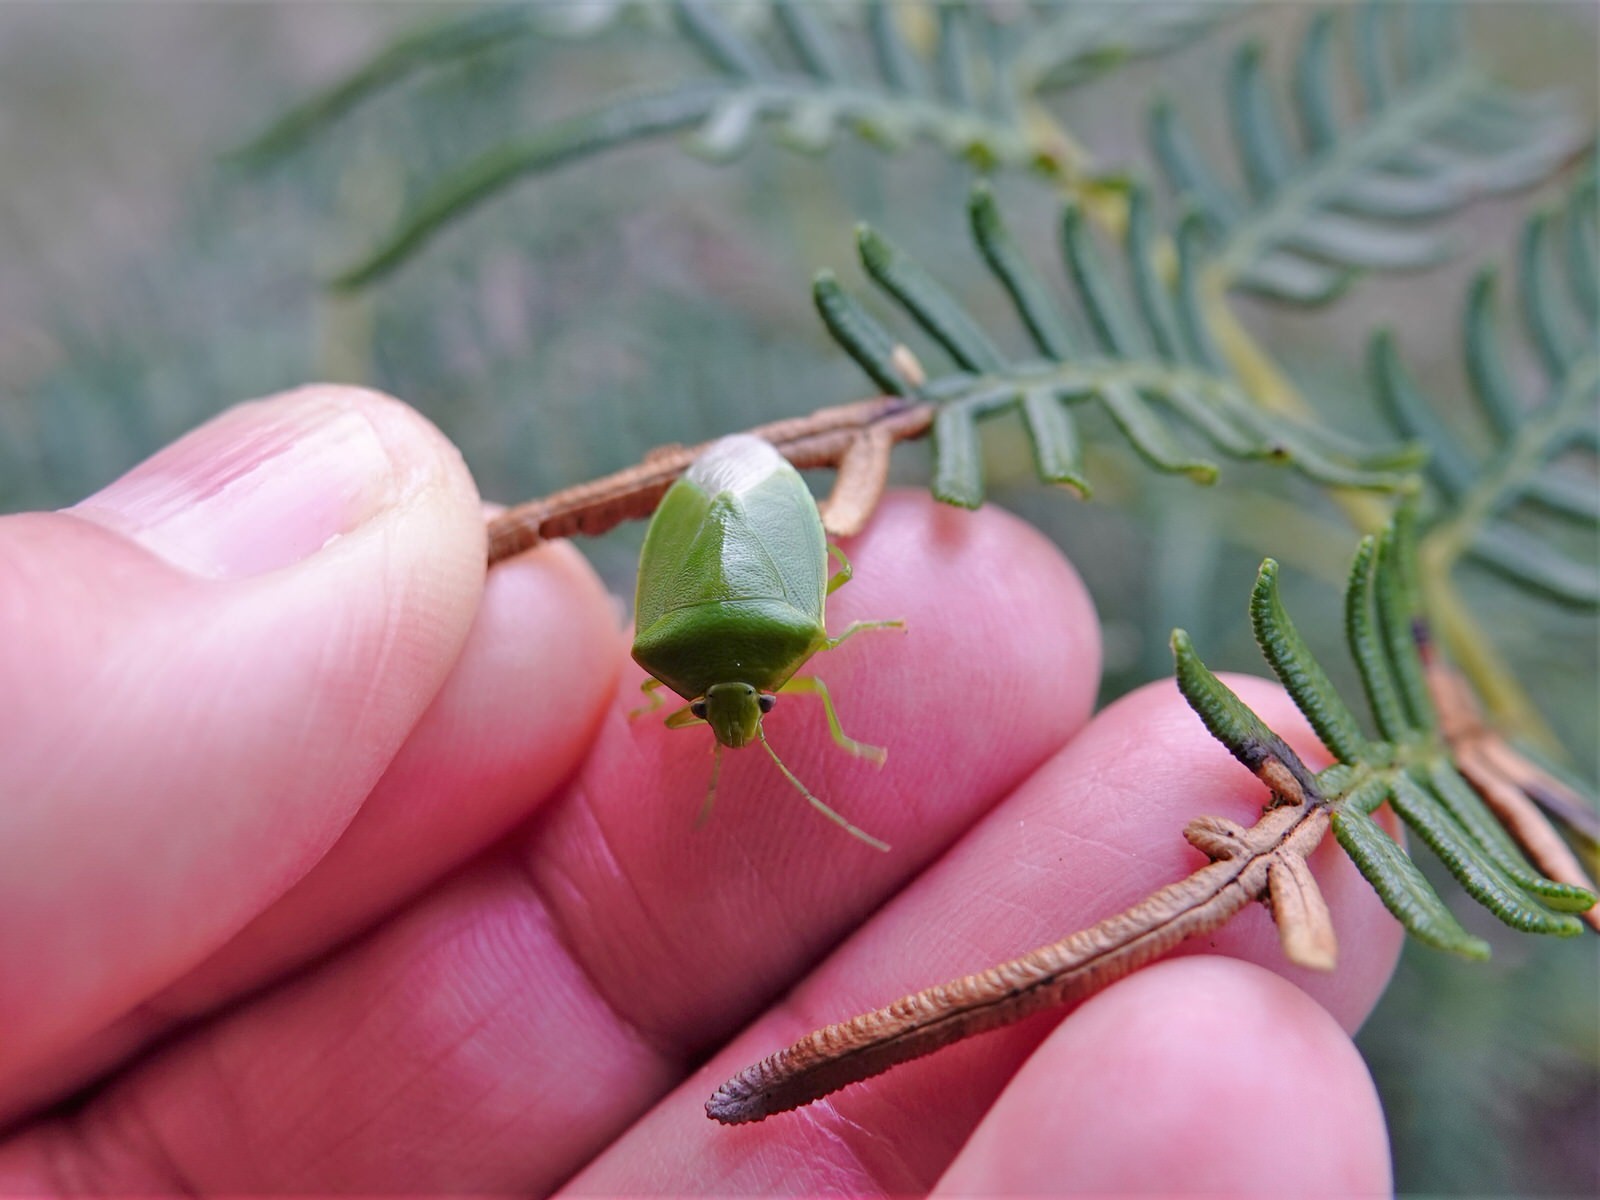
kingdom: Animalia
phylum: Arthropoda
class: Insecta
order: Hemiptera
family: Pentatomidae
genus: Glaucias
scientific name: Glaucias amyota
